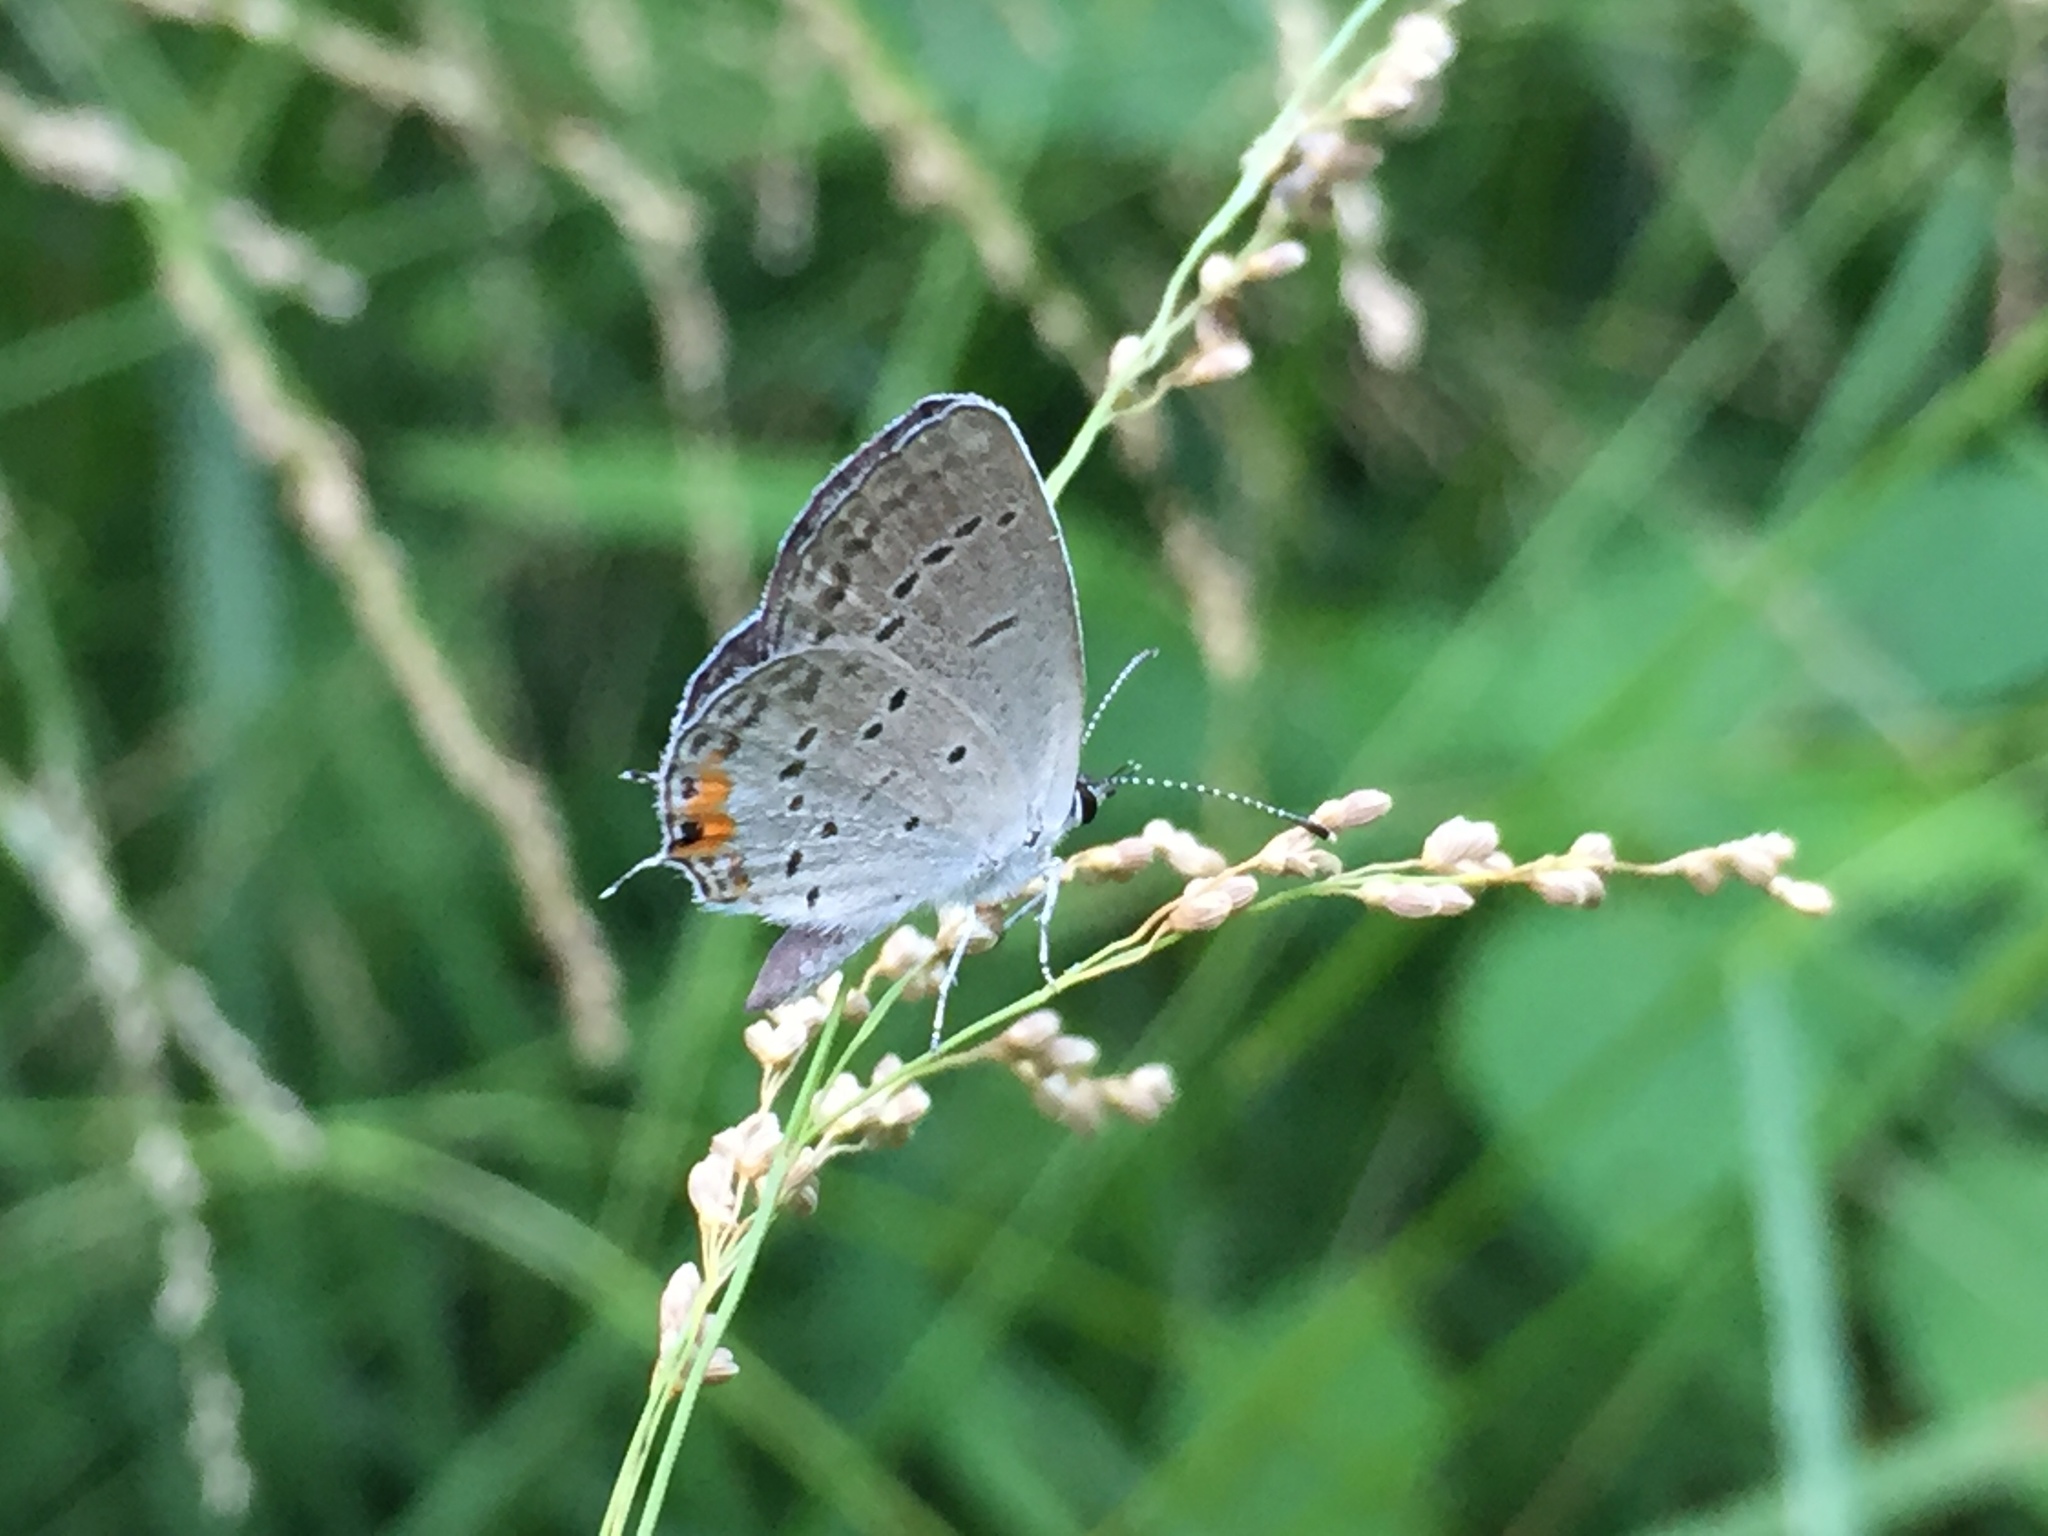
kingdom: Animalia
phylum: Arthropoda
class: Insecta
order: Lepidoptera
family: Lycaenidae
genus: Elkalyce
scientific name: Elkalyce comyntas
